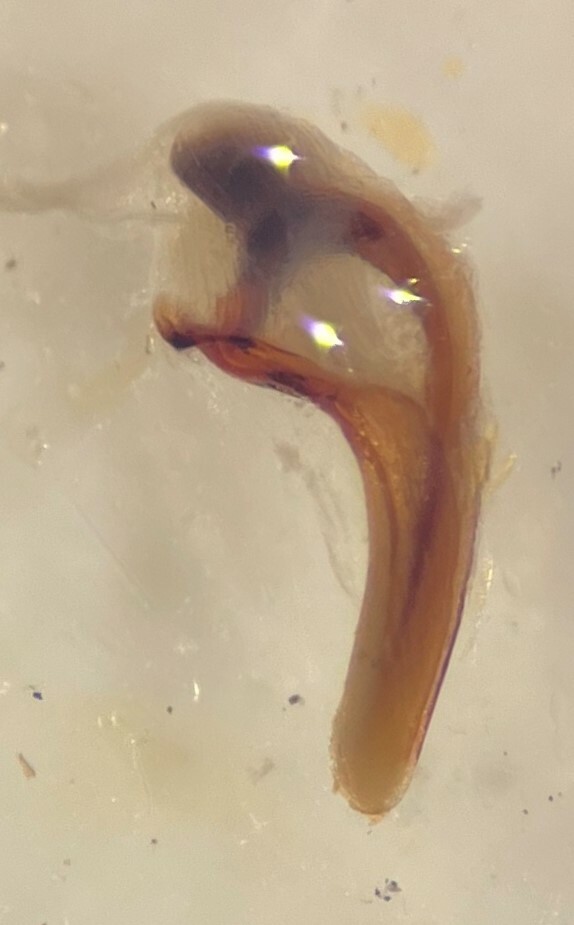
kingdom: Animalia
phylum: Arthropoda
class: Insecta
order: Coleoptera
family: Dytiscidae
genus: Hygrotus
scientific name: Hygrotus patruelis
